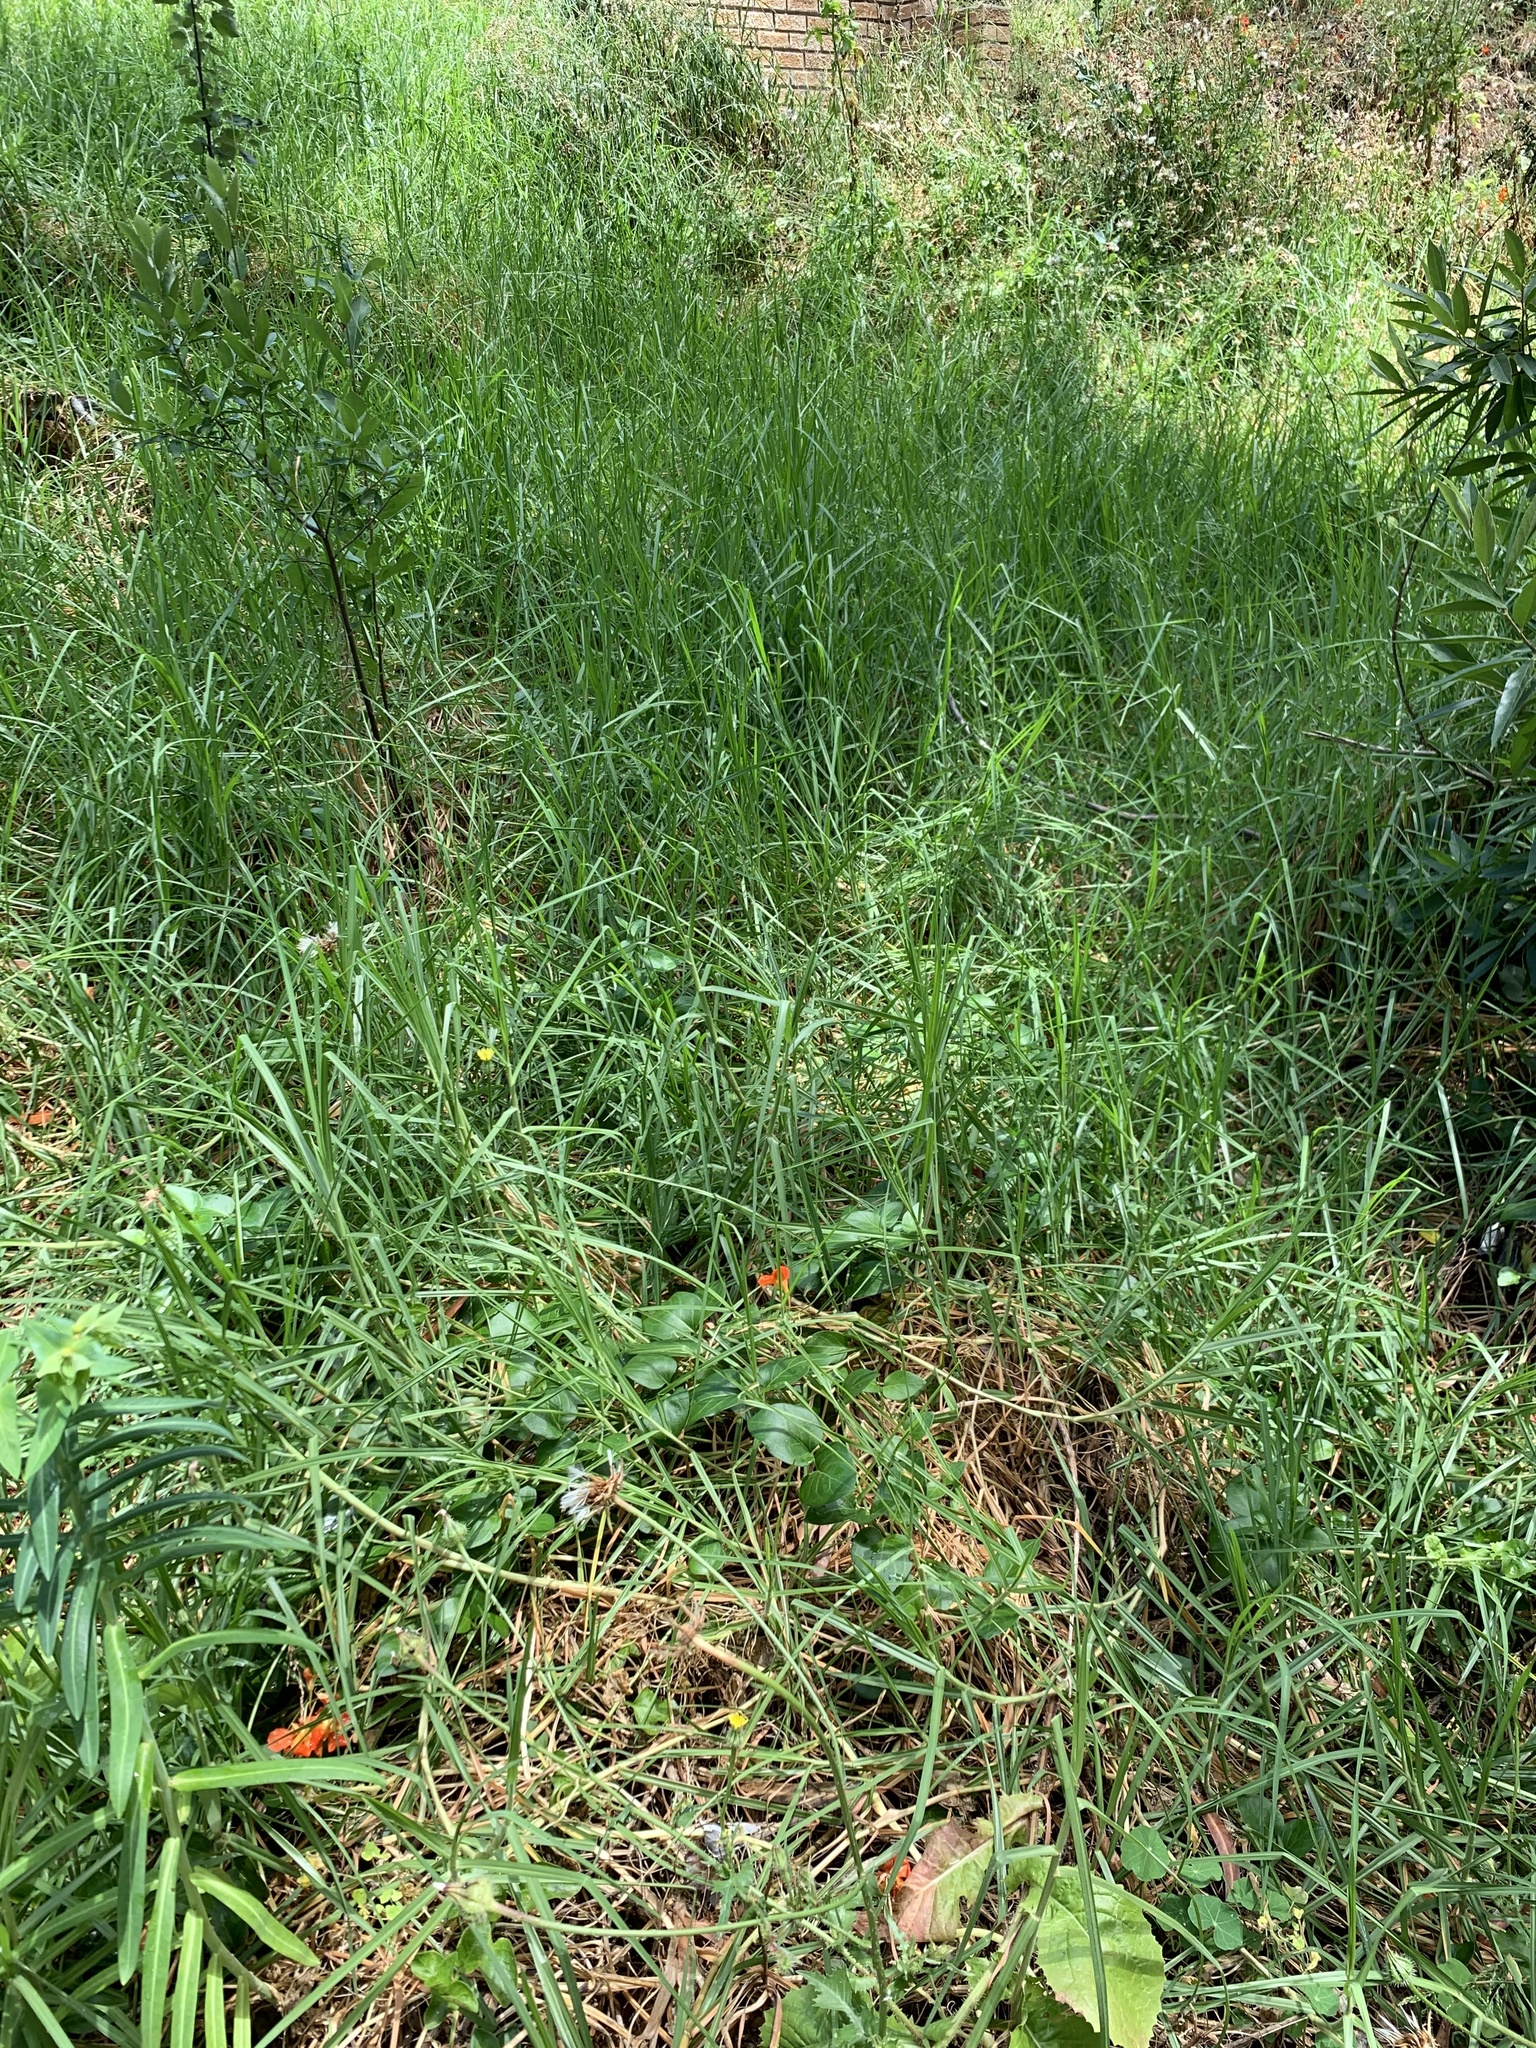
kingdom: Plantae
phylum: Tracheophyta
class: Liliopsida
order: Poales
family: Poaceae
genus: Cenchrus
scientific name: Cenchrus clandestinus
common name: Kikuyugrass
